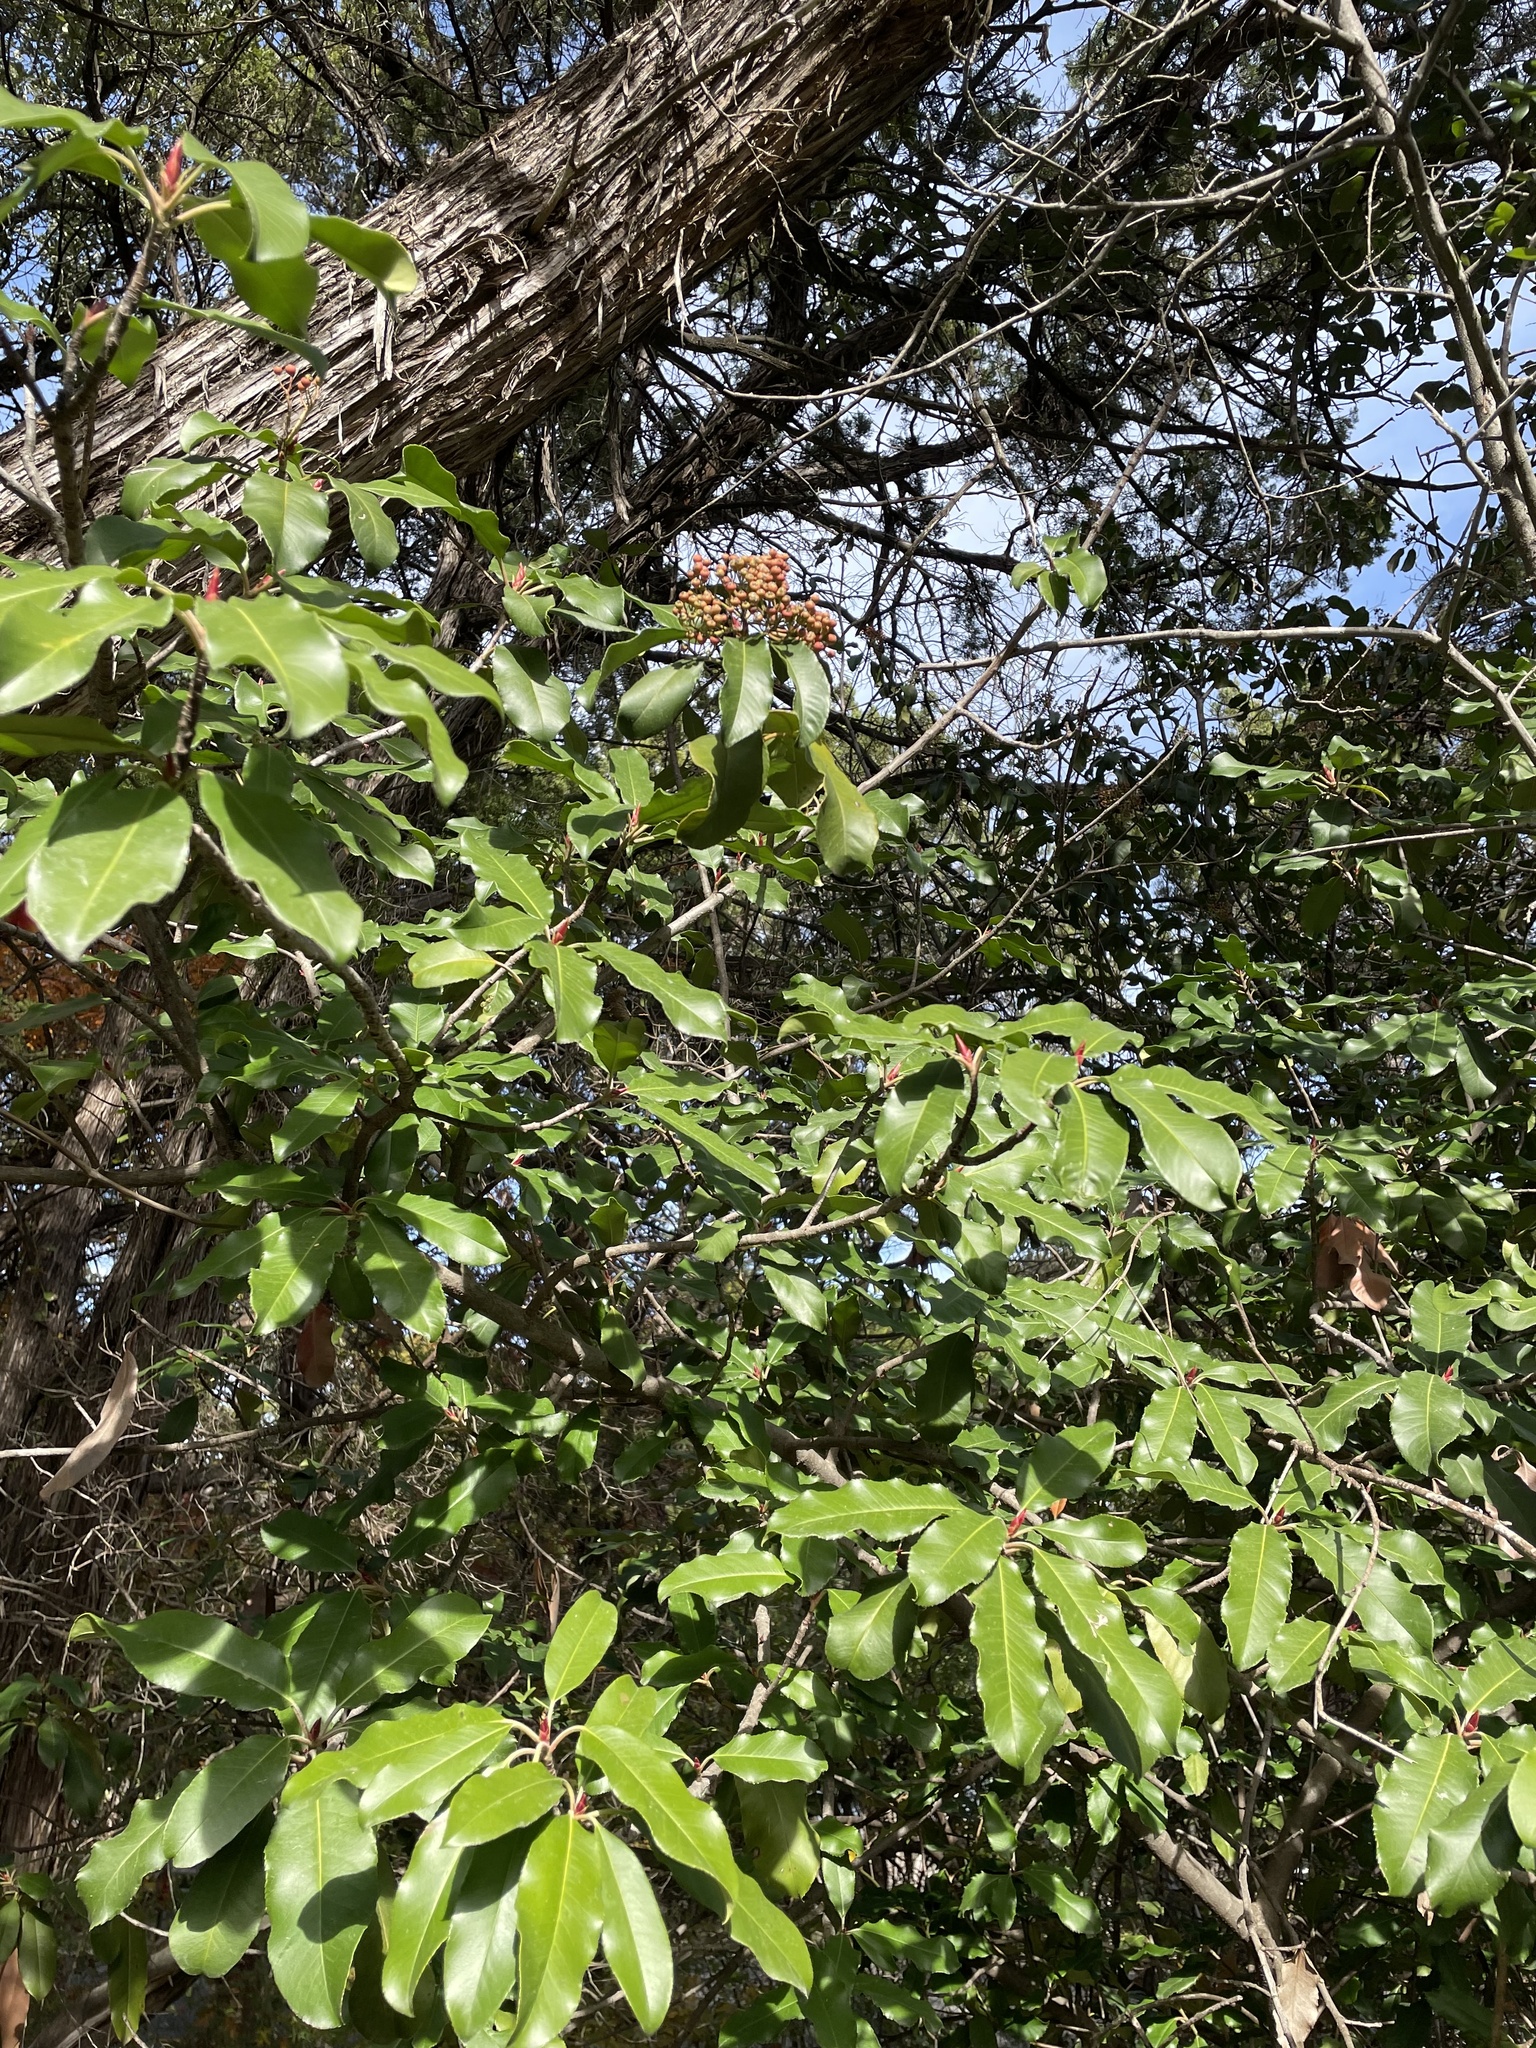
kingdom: Plantae
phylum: Tracheophyta
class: Magnoliopsida
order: Rosales
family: Rosaceae
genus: Photinia
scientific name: Photinia serratifolia
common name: Taiwanese photinia
